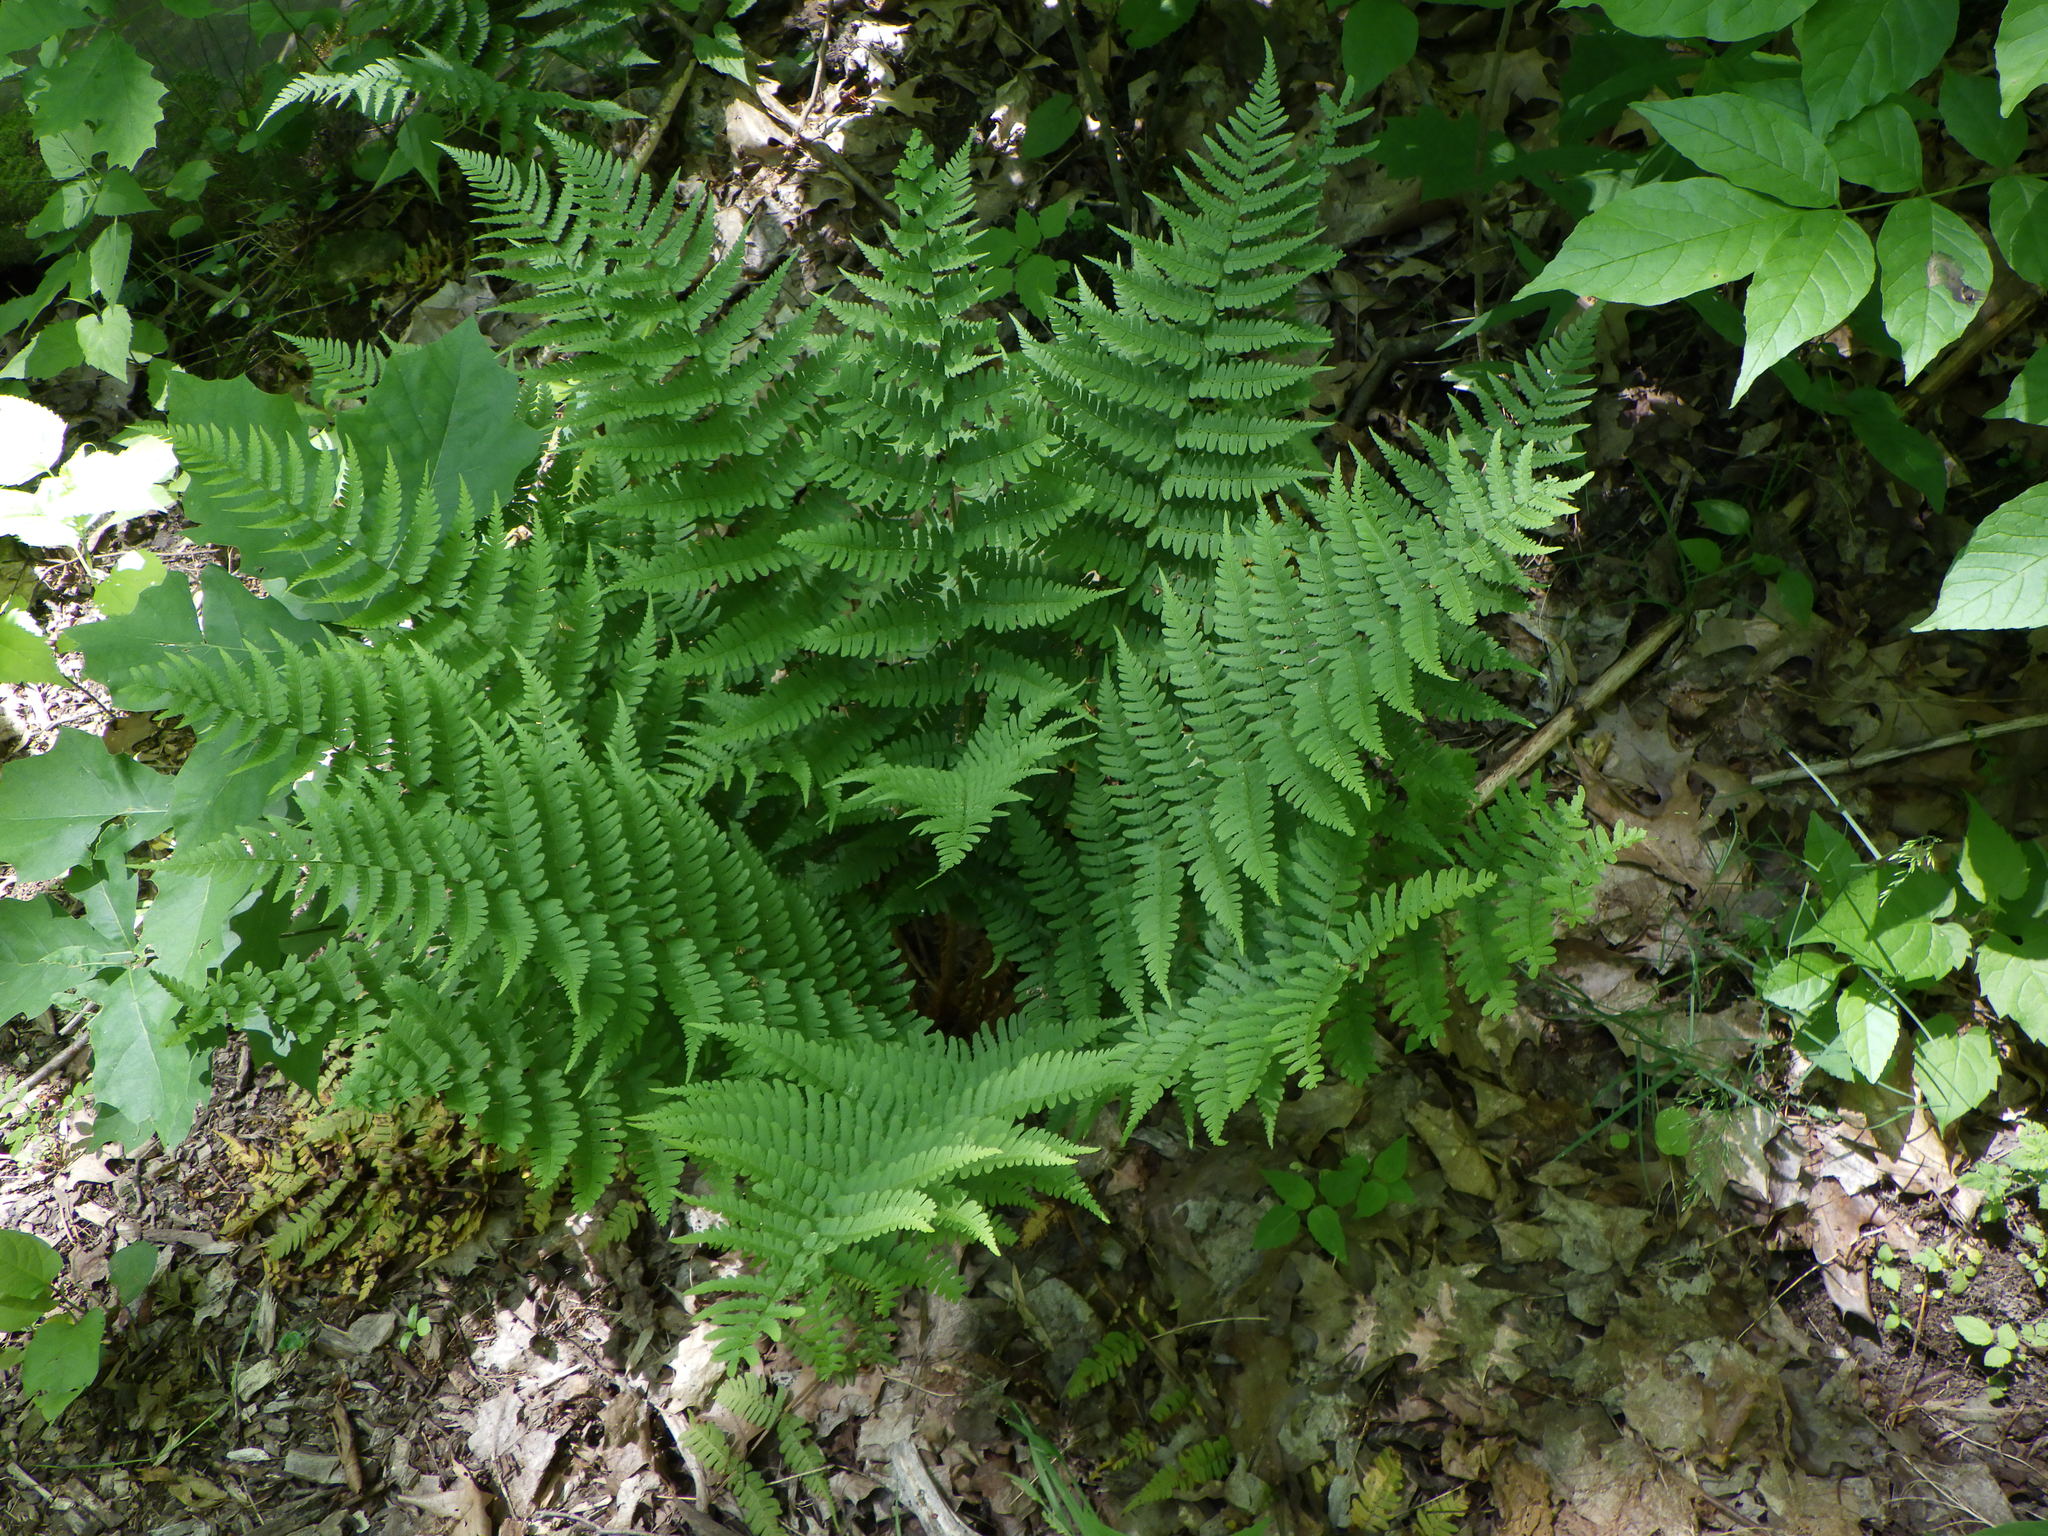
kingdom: Plantae
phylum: Tracheophyta
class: Polypodiopsida
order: Polypodiales
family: Dryopteridaceae
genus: Dryopteris
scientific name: Dryopteris marginalis
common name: Marginal wood fern
